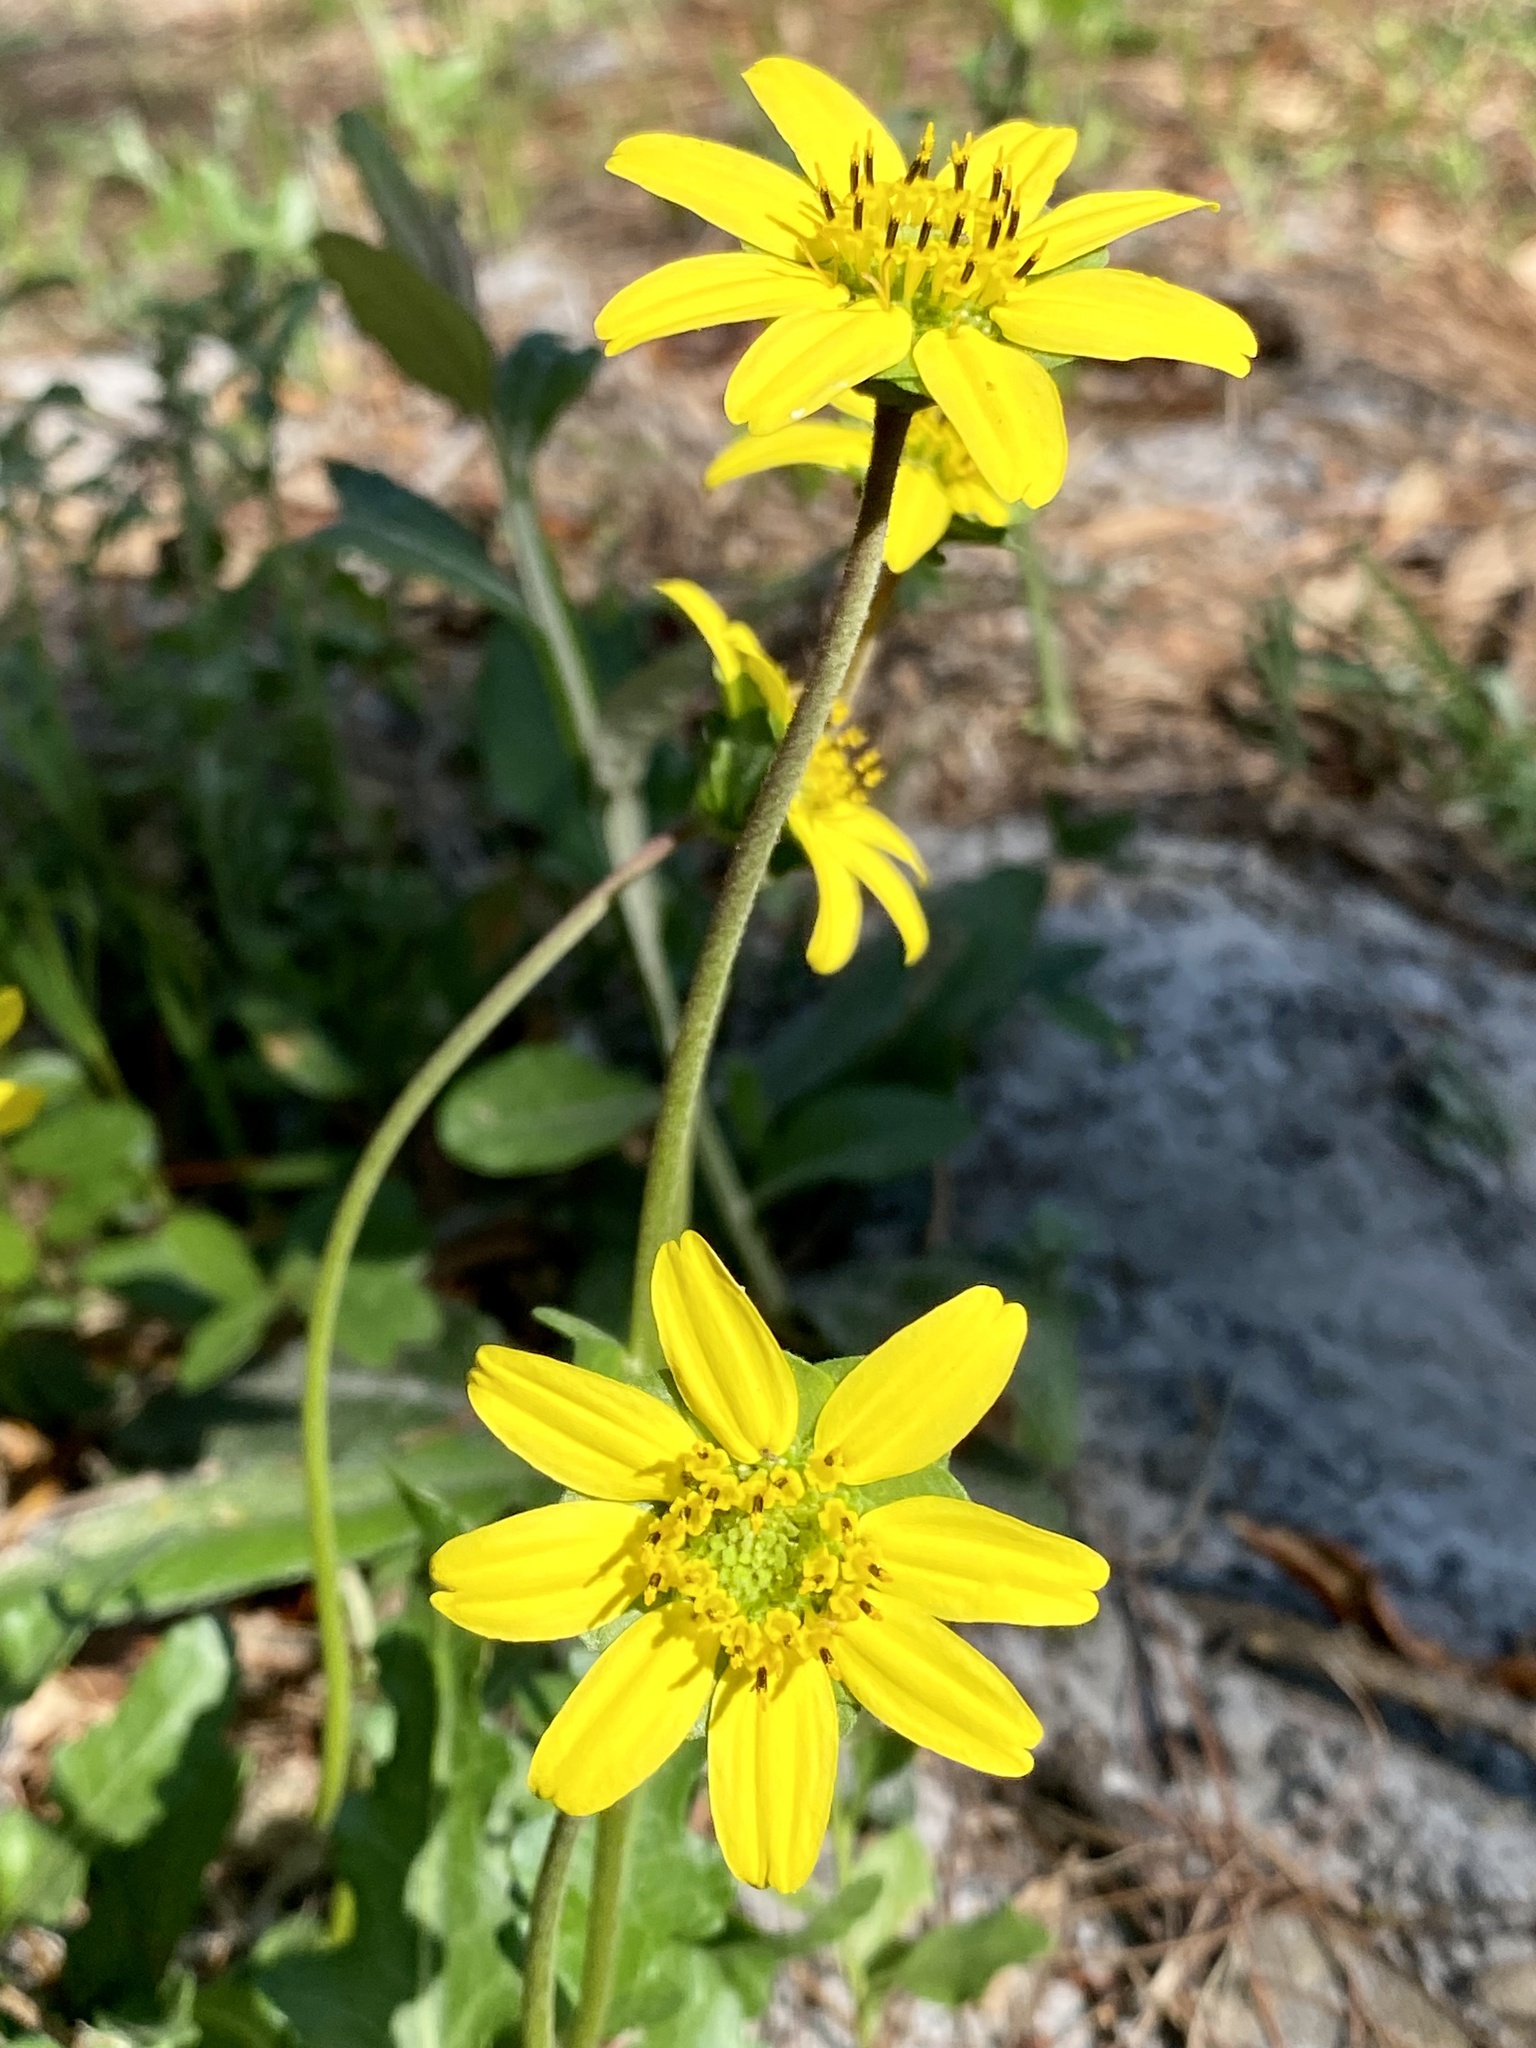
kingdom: Plantae
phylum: Tracheophyta
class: Magnoliopsida
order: Asterales
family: Asteraceae
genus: Berlandiera
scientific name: Berlandiera subacaulis
